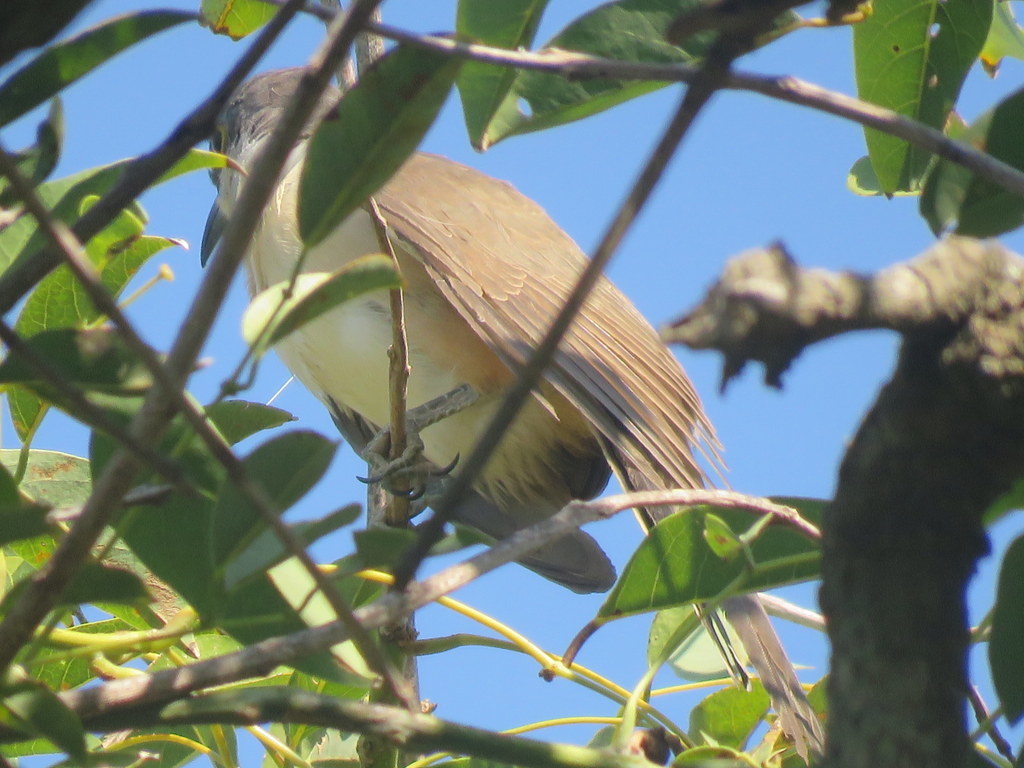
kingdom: Animalia
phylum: Chordata
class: Aves
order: Cuculiformes
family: Cuculidae
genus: Coccyzus
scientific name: Coccyzus melacoryphus
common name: Dark-billed cuckoo
